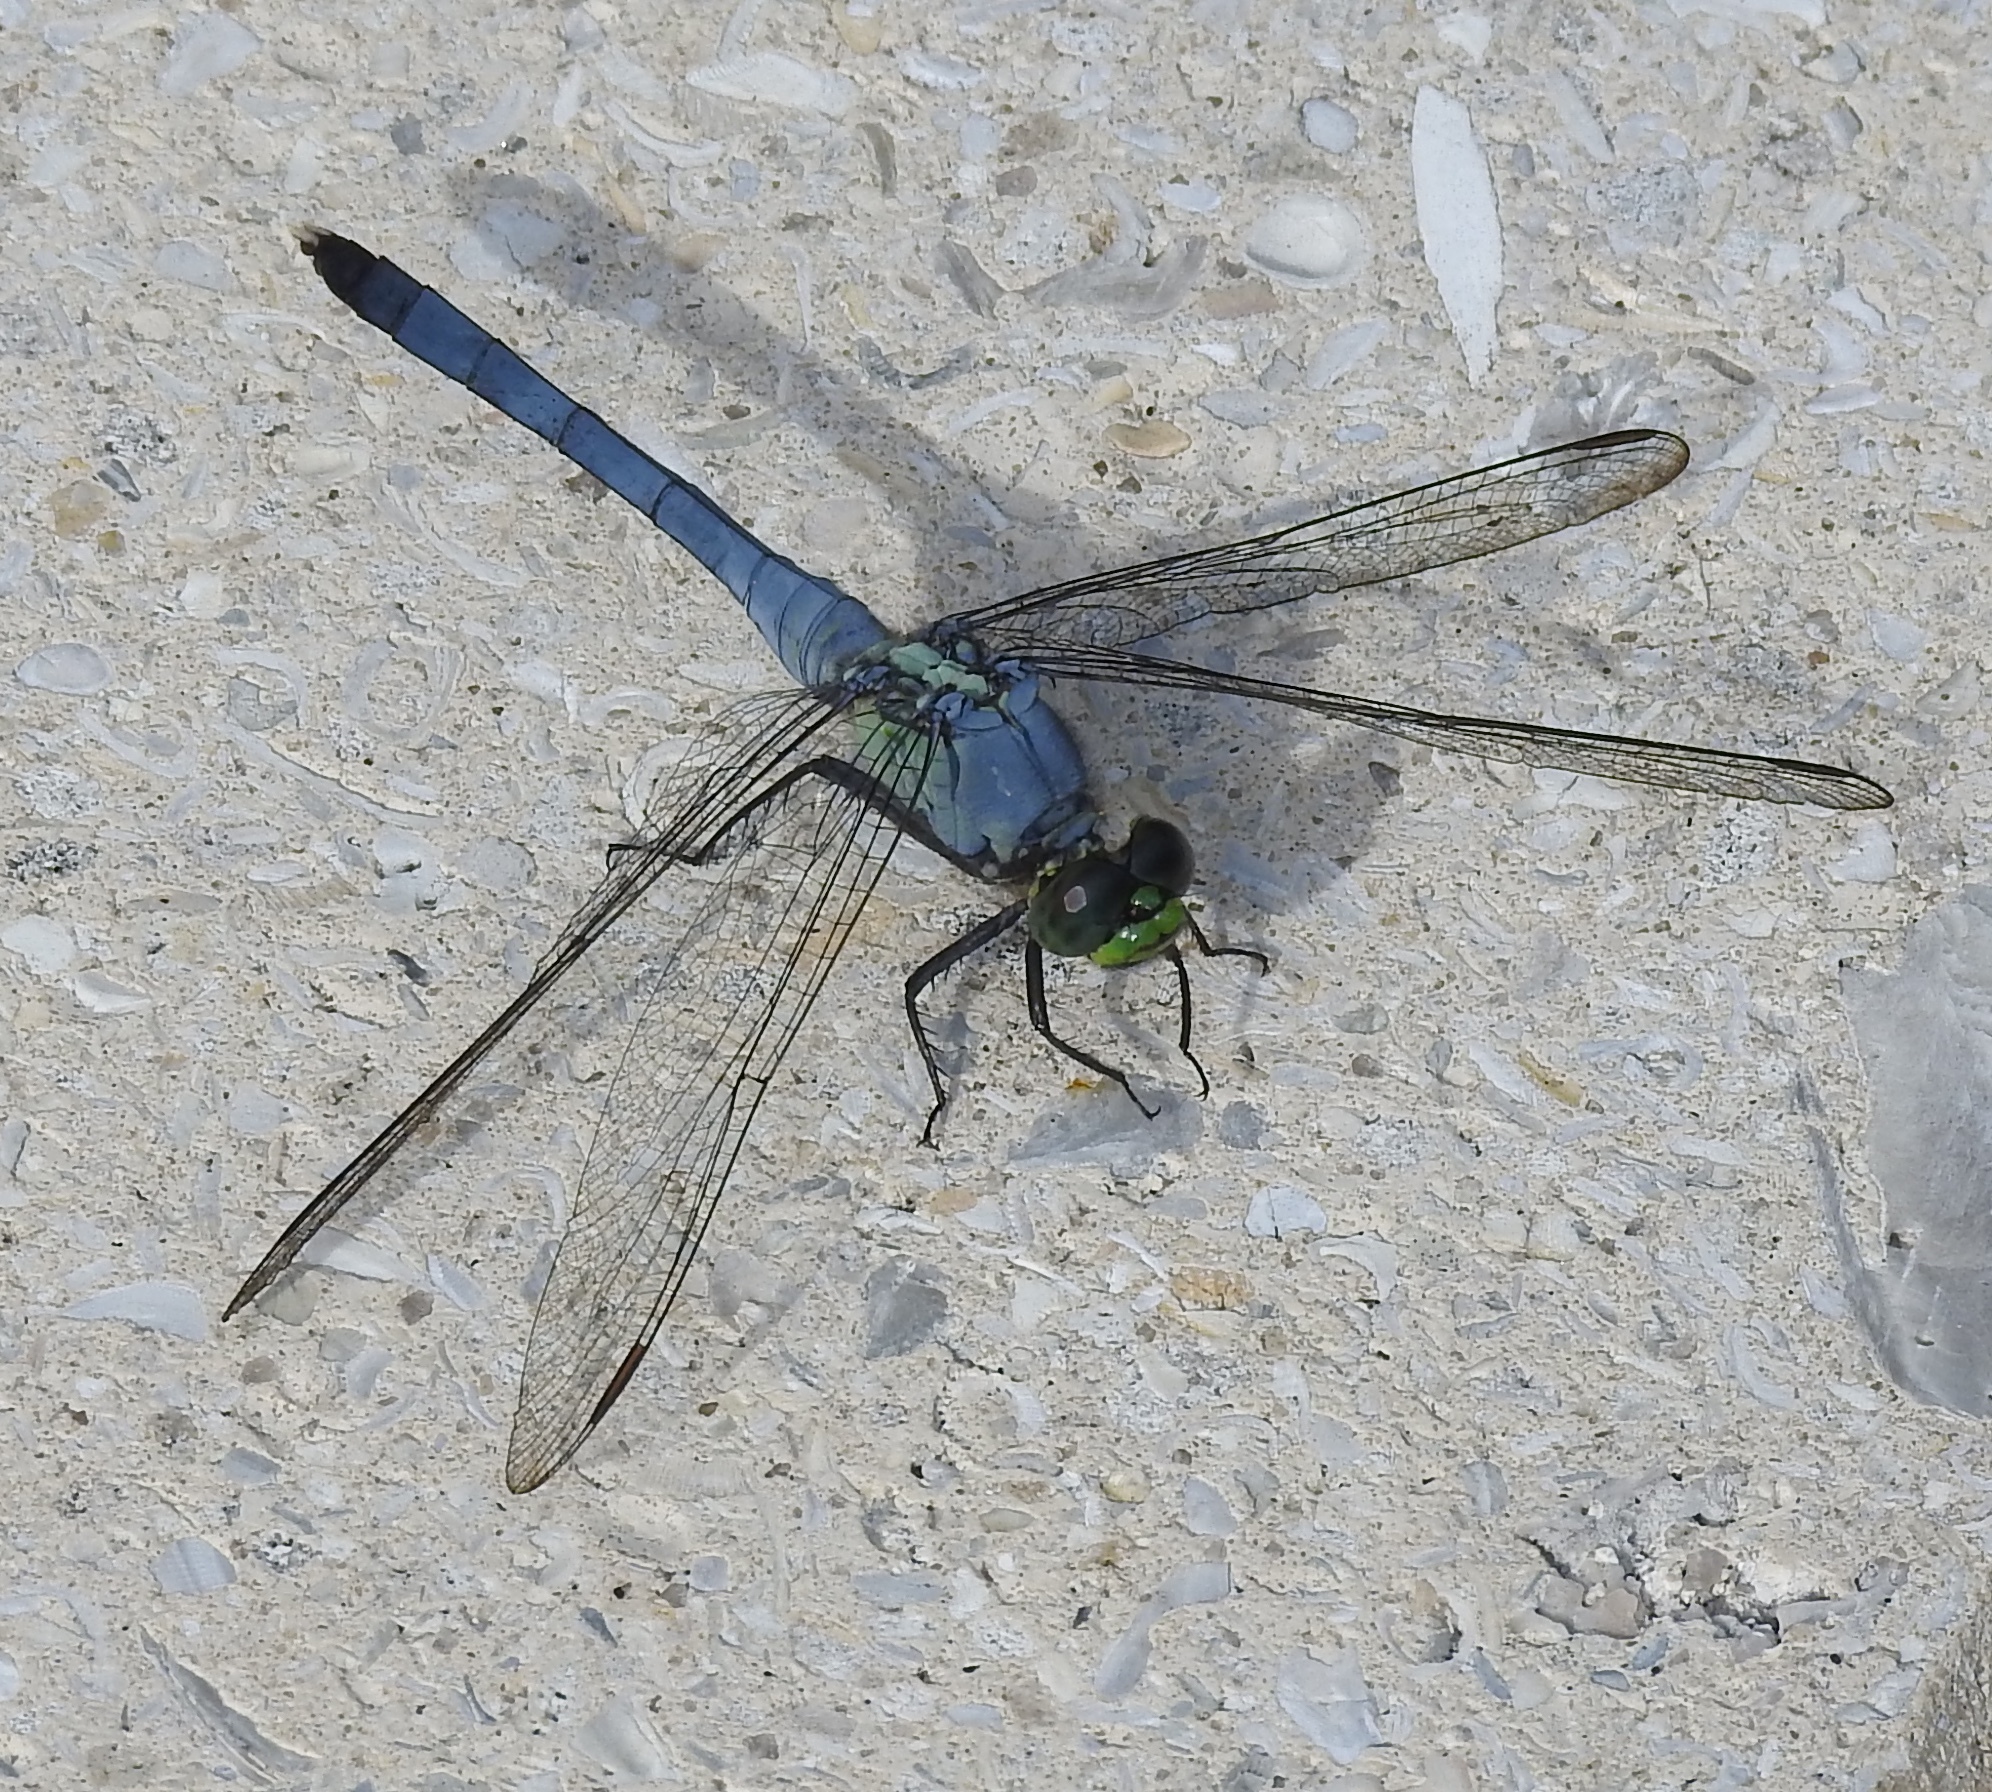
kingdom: Animalia
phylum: Arthropoda
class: Insecta
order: Odonata
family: Libellulidae
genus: Erythemis
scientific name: Erythemis simplicicollis
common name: Eastern pondhawk
